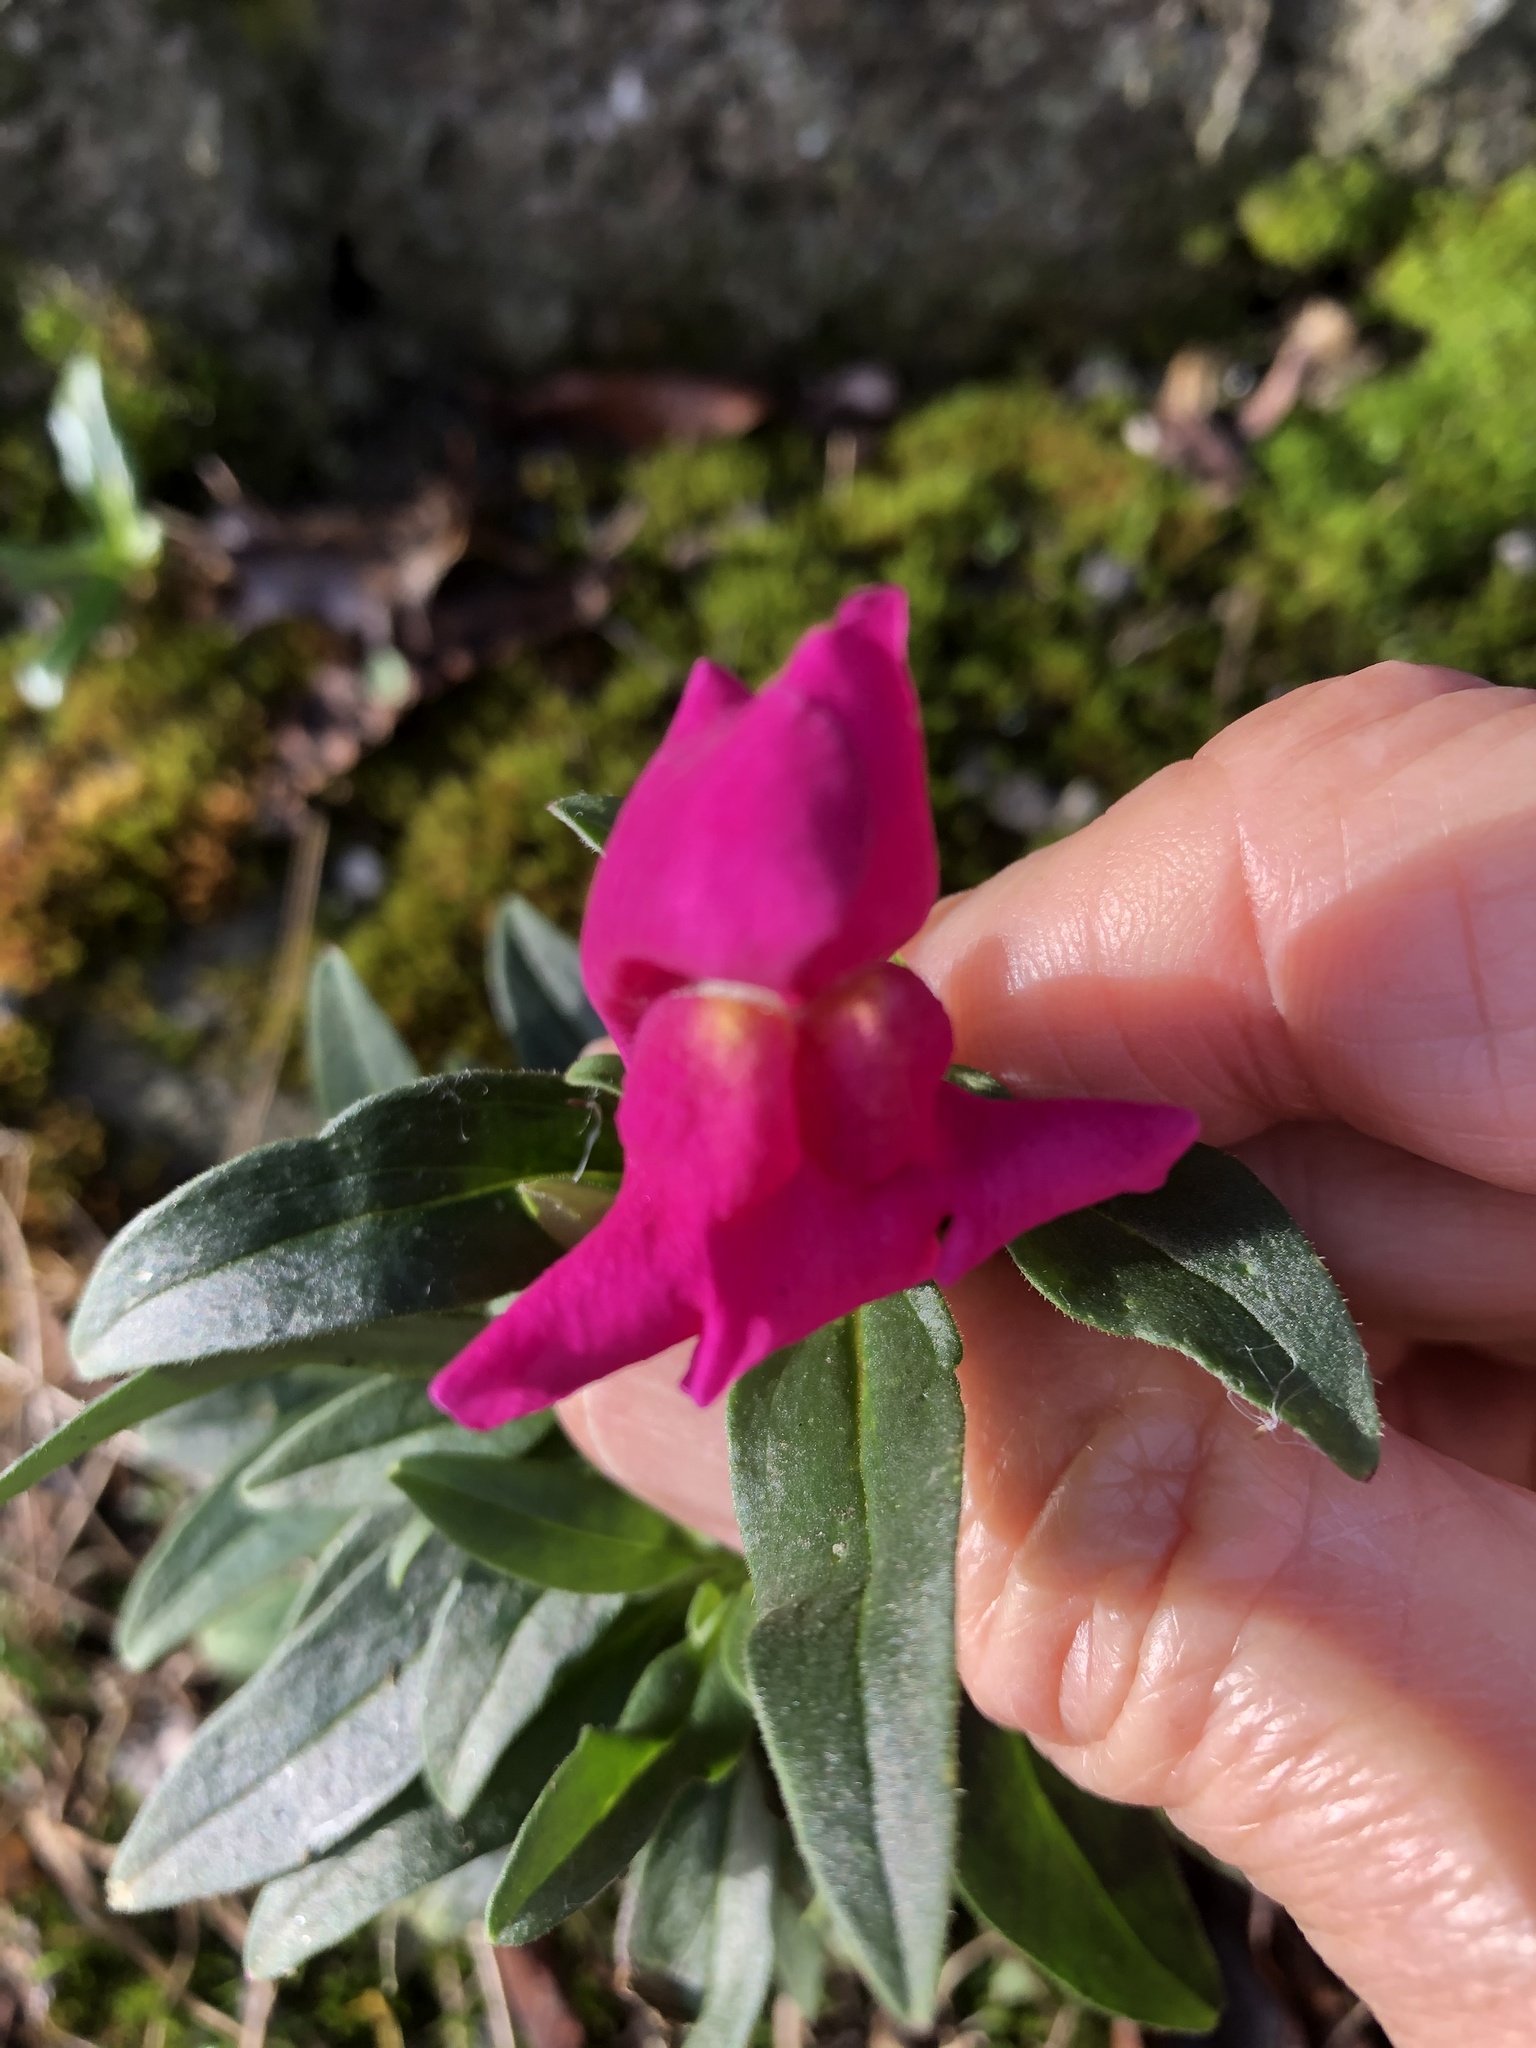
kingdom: Plantae
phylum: Tracheophyta
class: Magnoliopsida
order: Lamiales
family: Plantaginaceae
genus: Antirrhinum
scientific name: Antirrhinum majus
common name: Snapdragon
